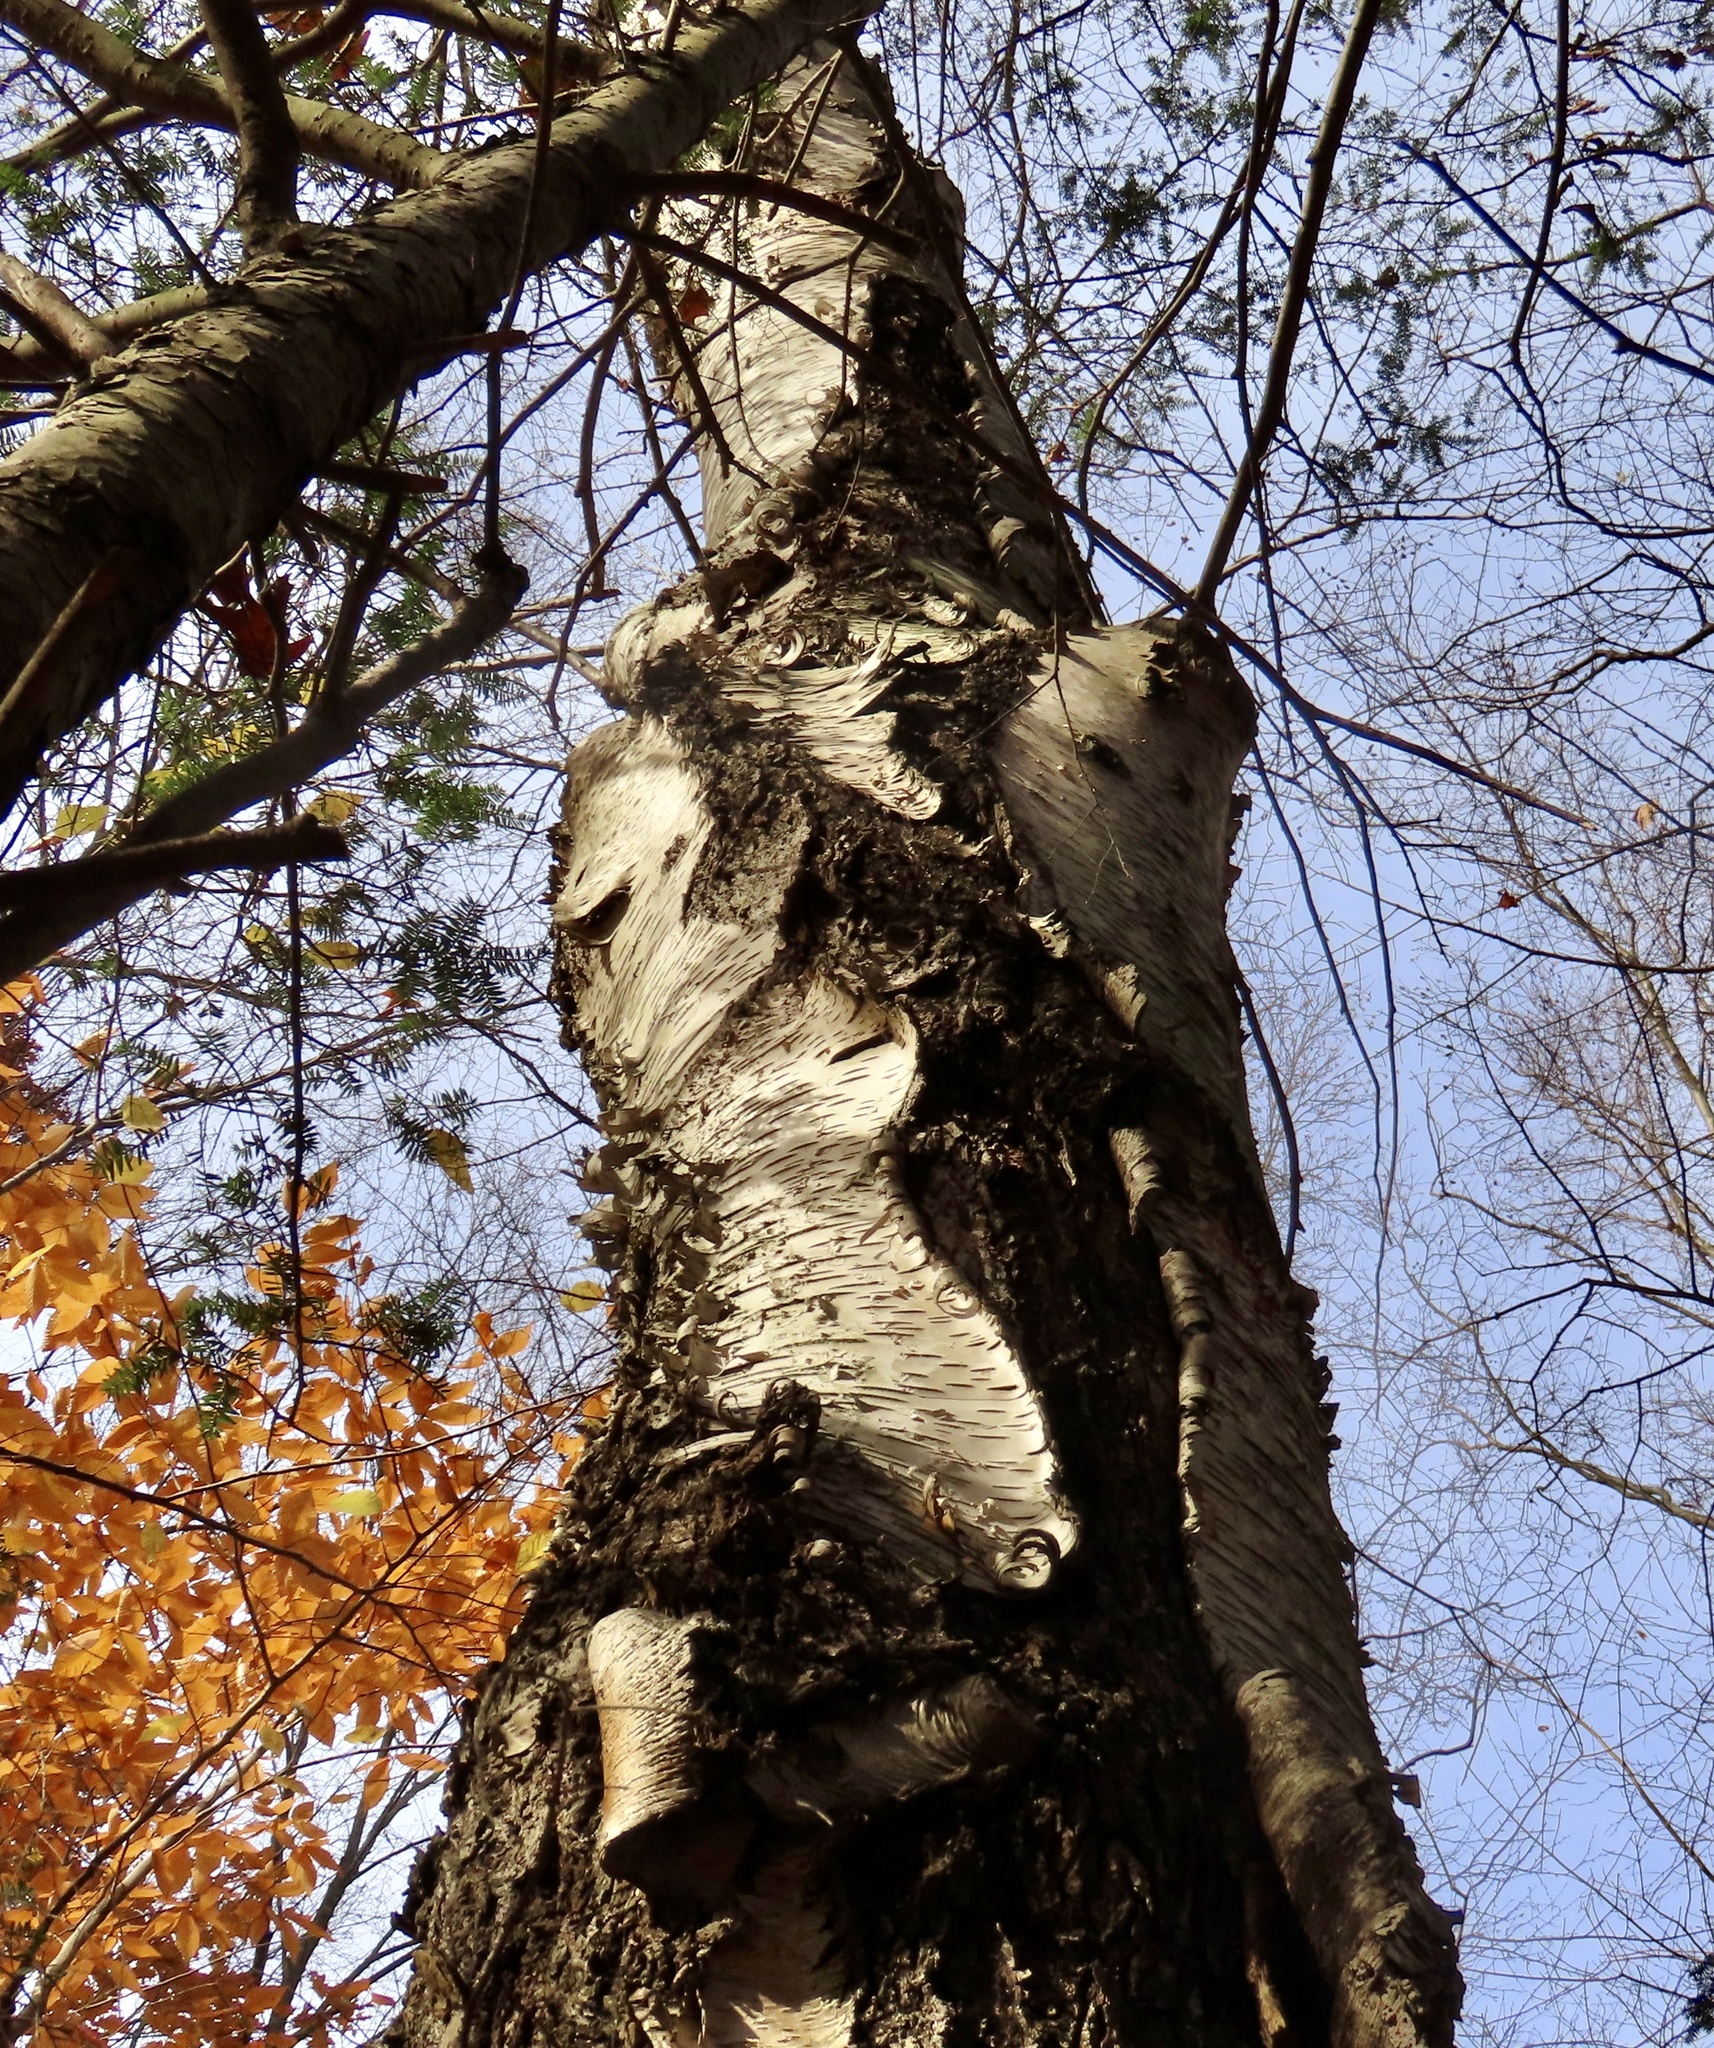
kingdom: Plantae
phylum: Tracheophyta
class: Magnoliopsida
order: Fagales
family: Betulaceae
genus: Betula
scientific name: Betula papyrifera
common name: Paper birch
